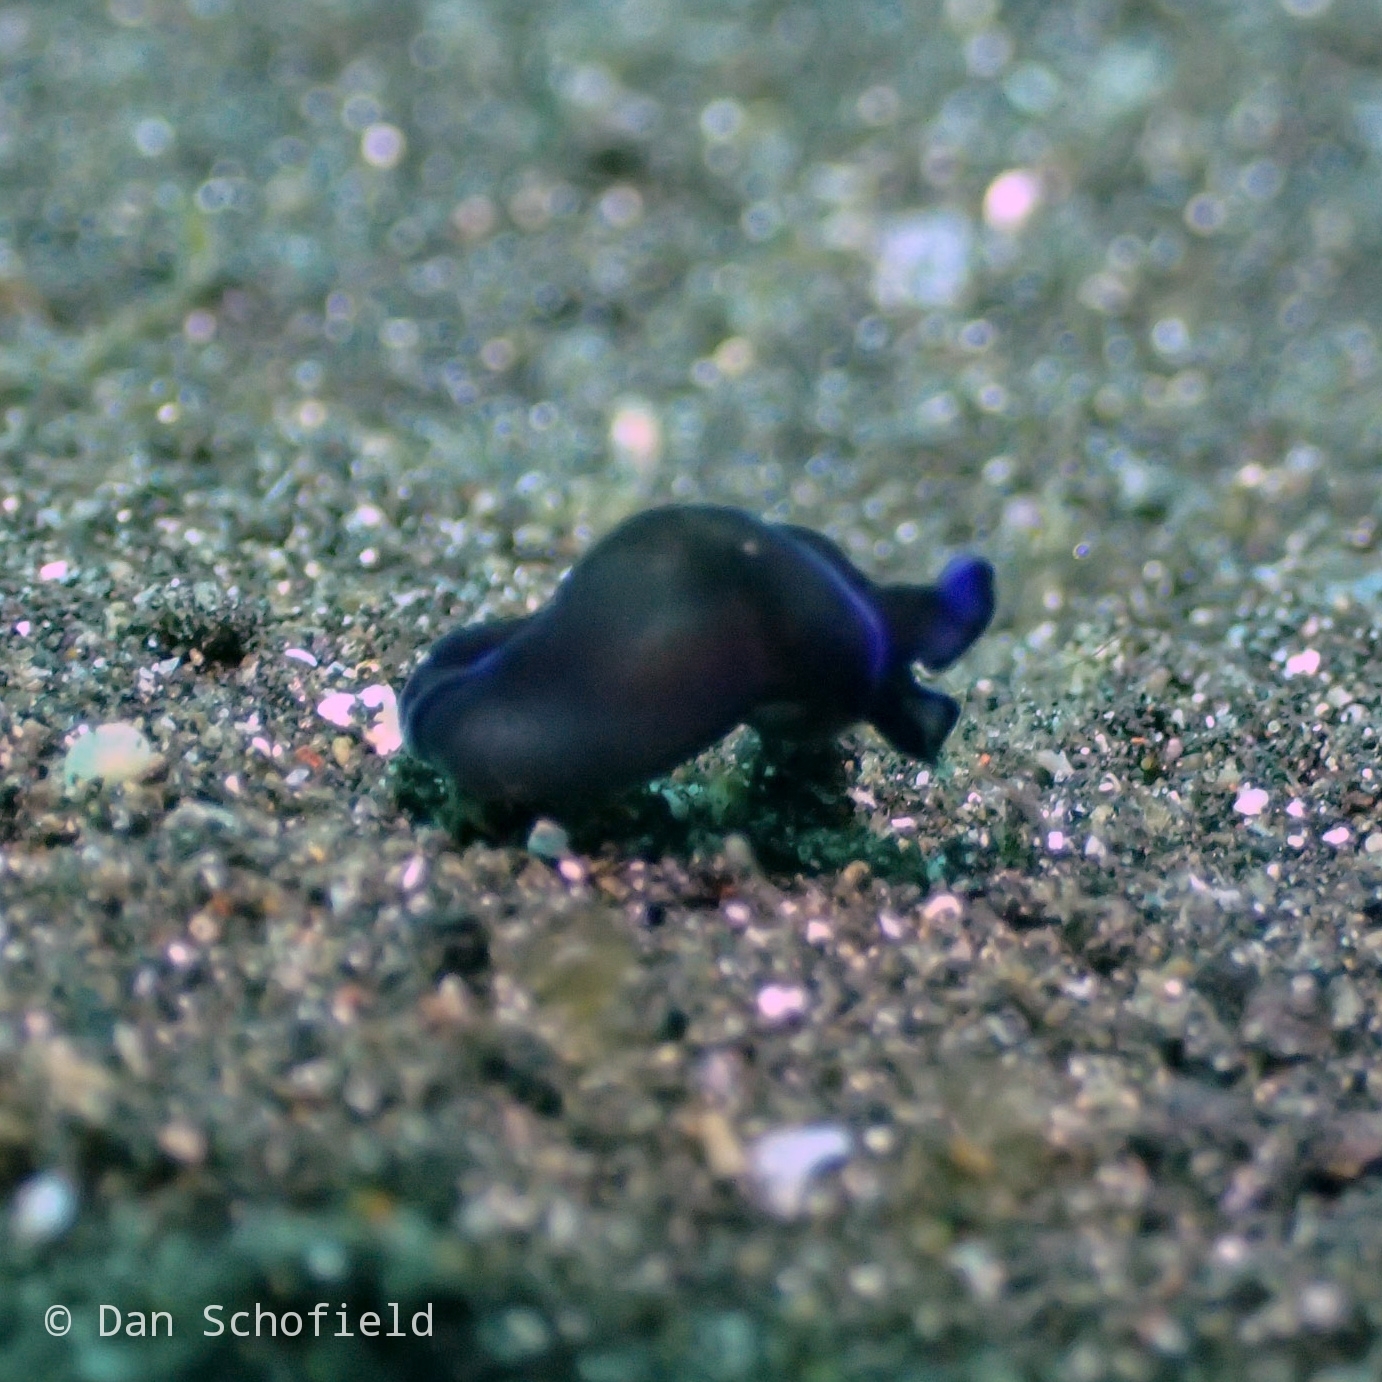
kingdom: Animalia
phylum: Mollusca
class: Gastropoda
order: Cephalaspidea
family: Aglajidae
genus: Tubulophilinopsis
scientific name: Tubulophilinopsis gardineri
